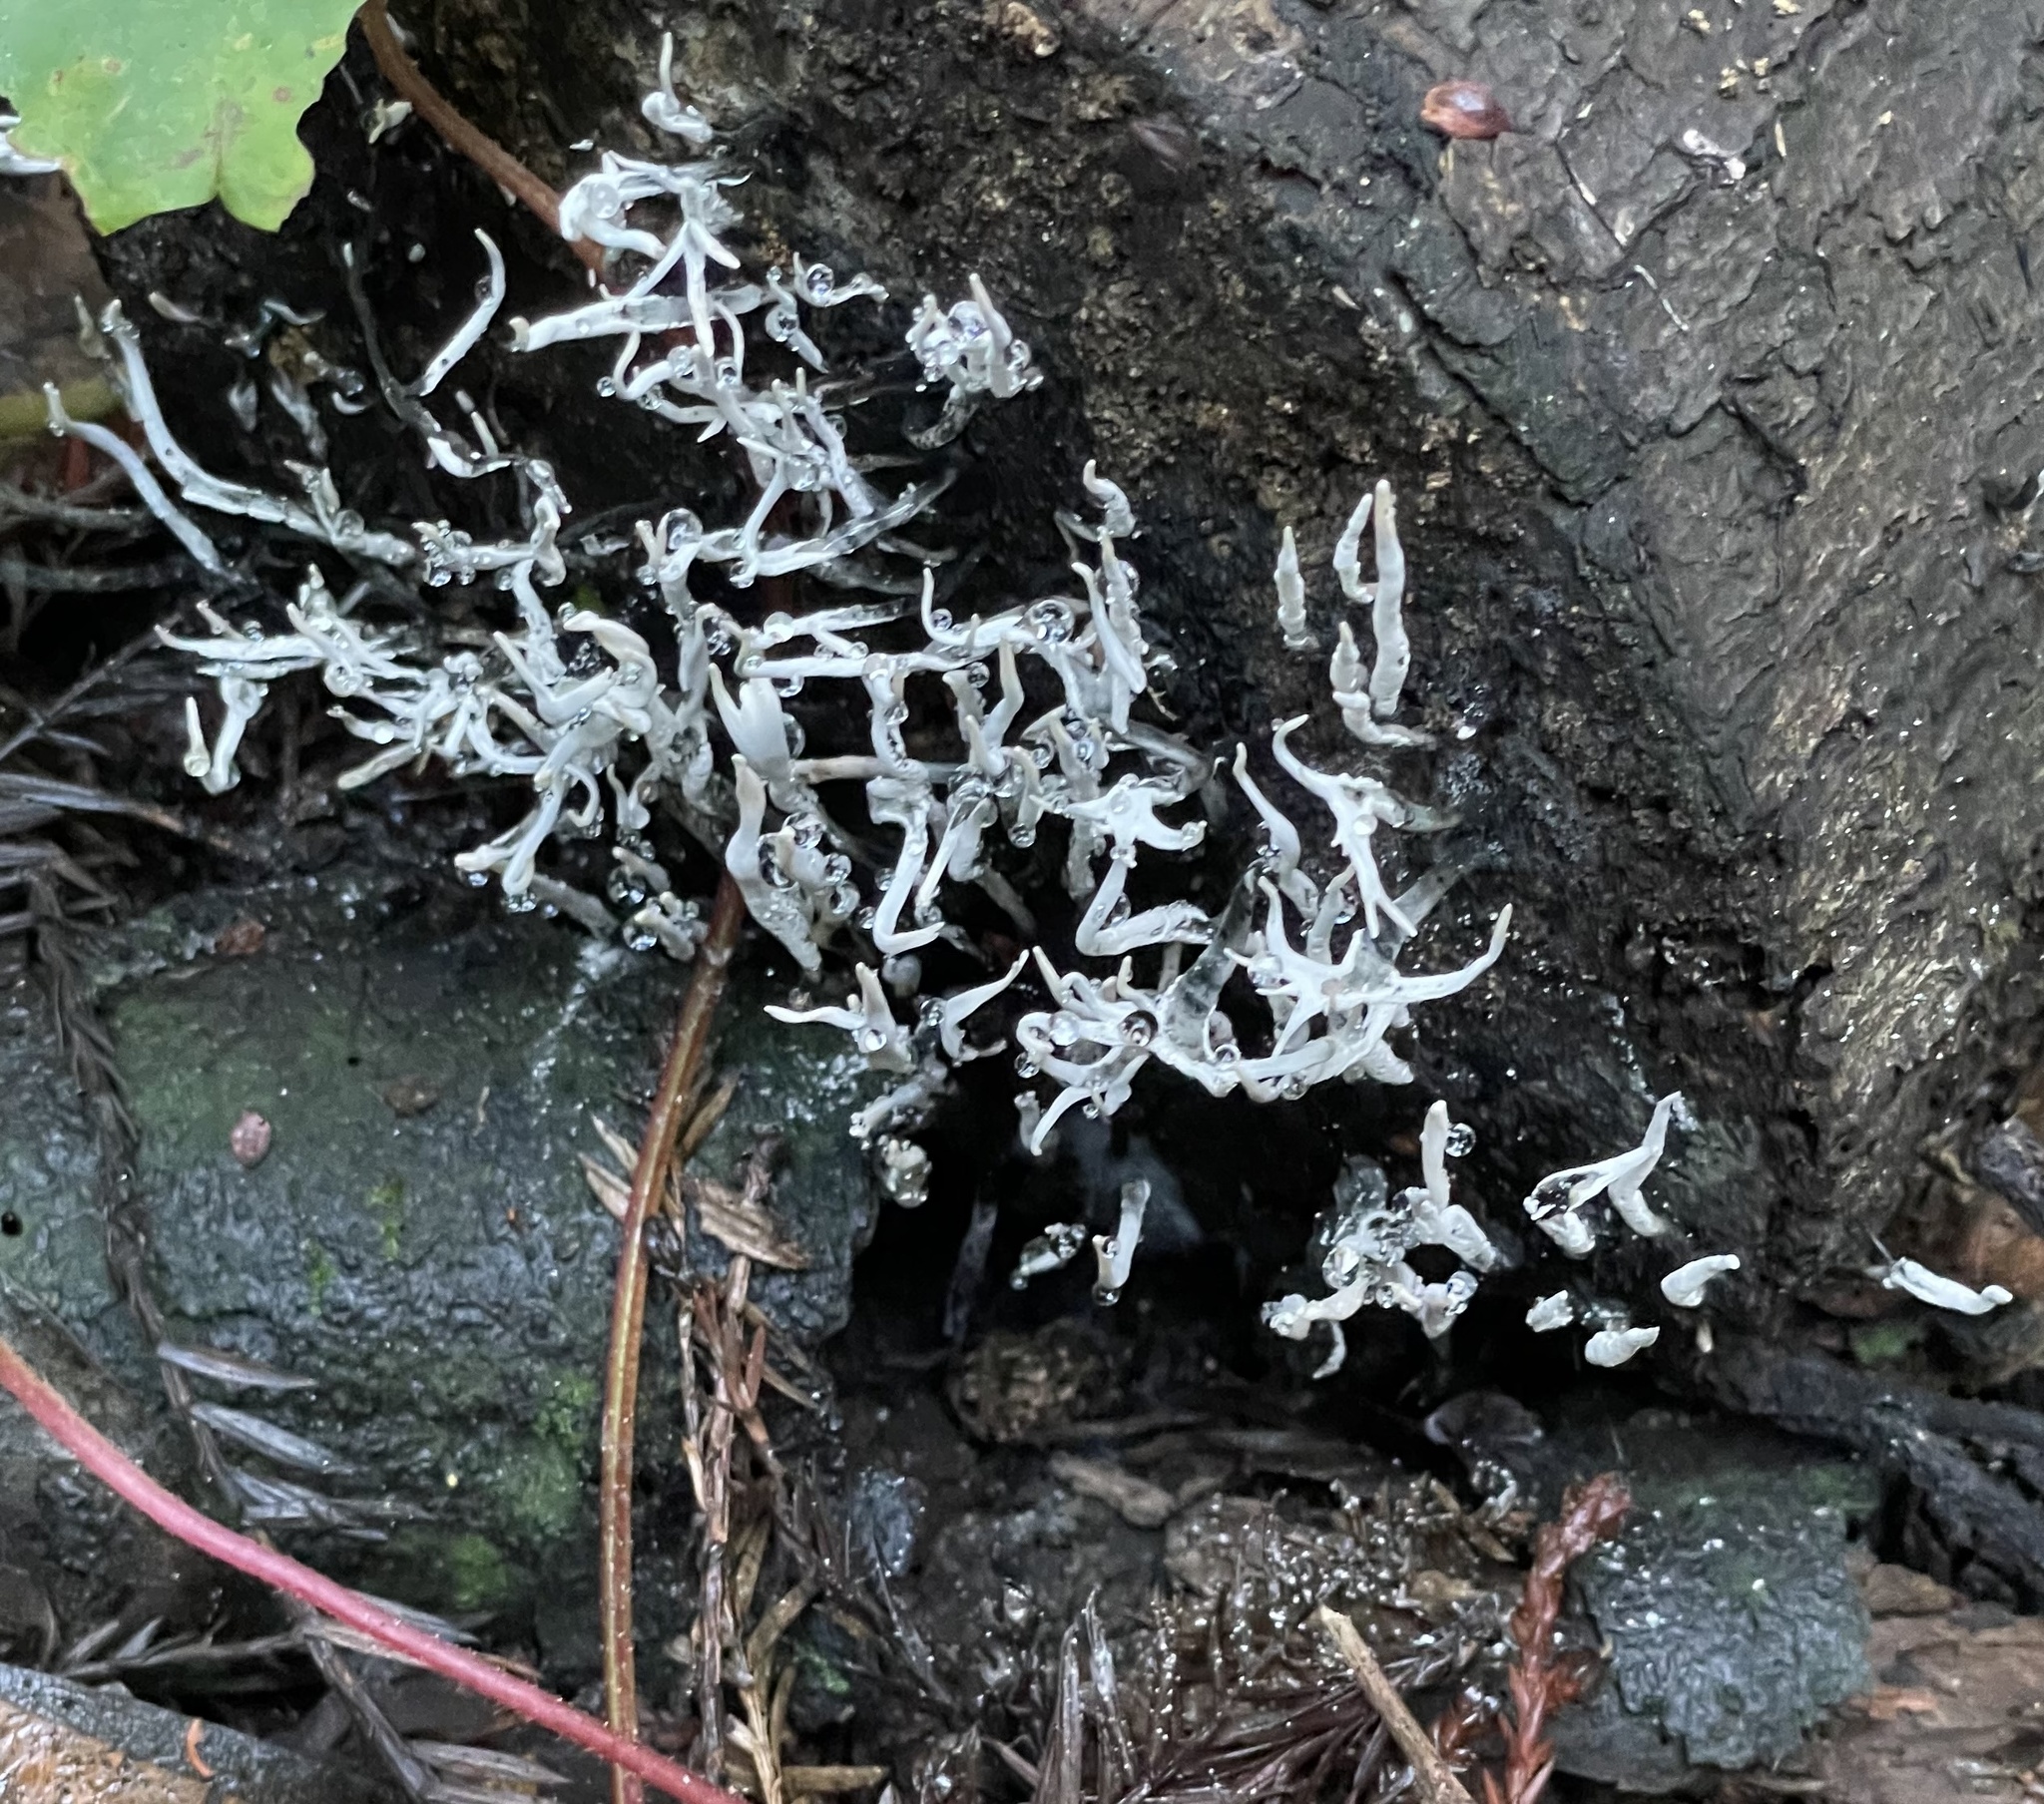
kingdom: Fungi
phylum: Ascomycota
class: Sordariomycetes
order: Xylariales
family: Xylariaceae
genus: Xylaria
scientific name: Xylaria hypoxylon
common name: Candle-snuff fungus
